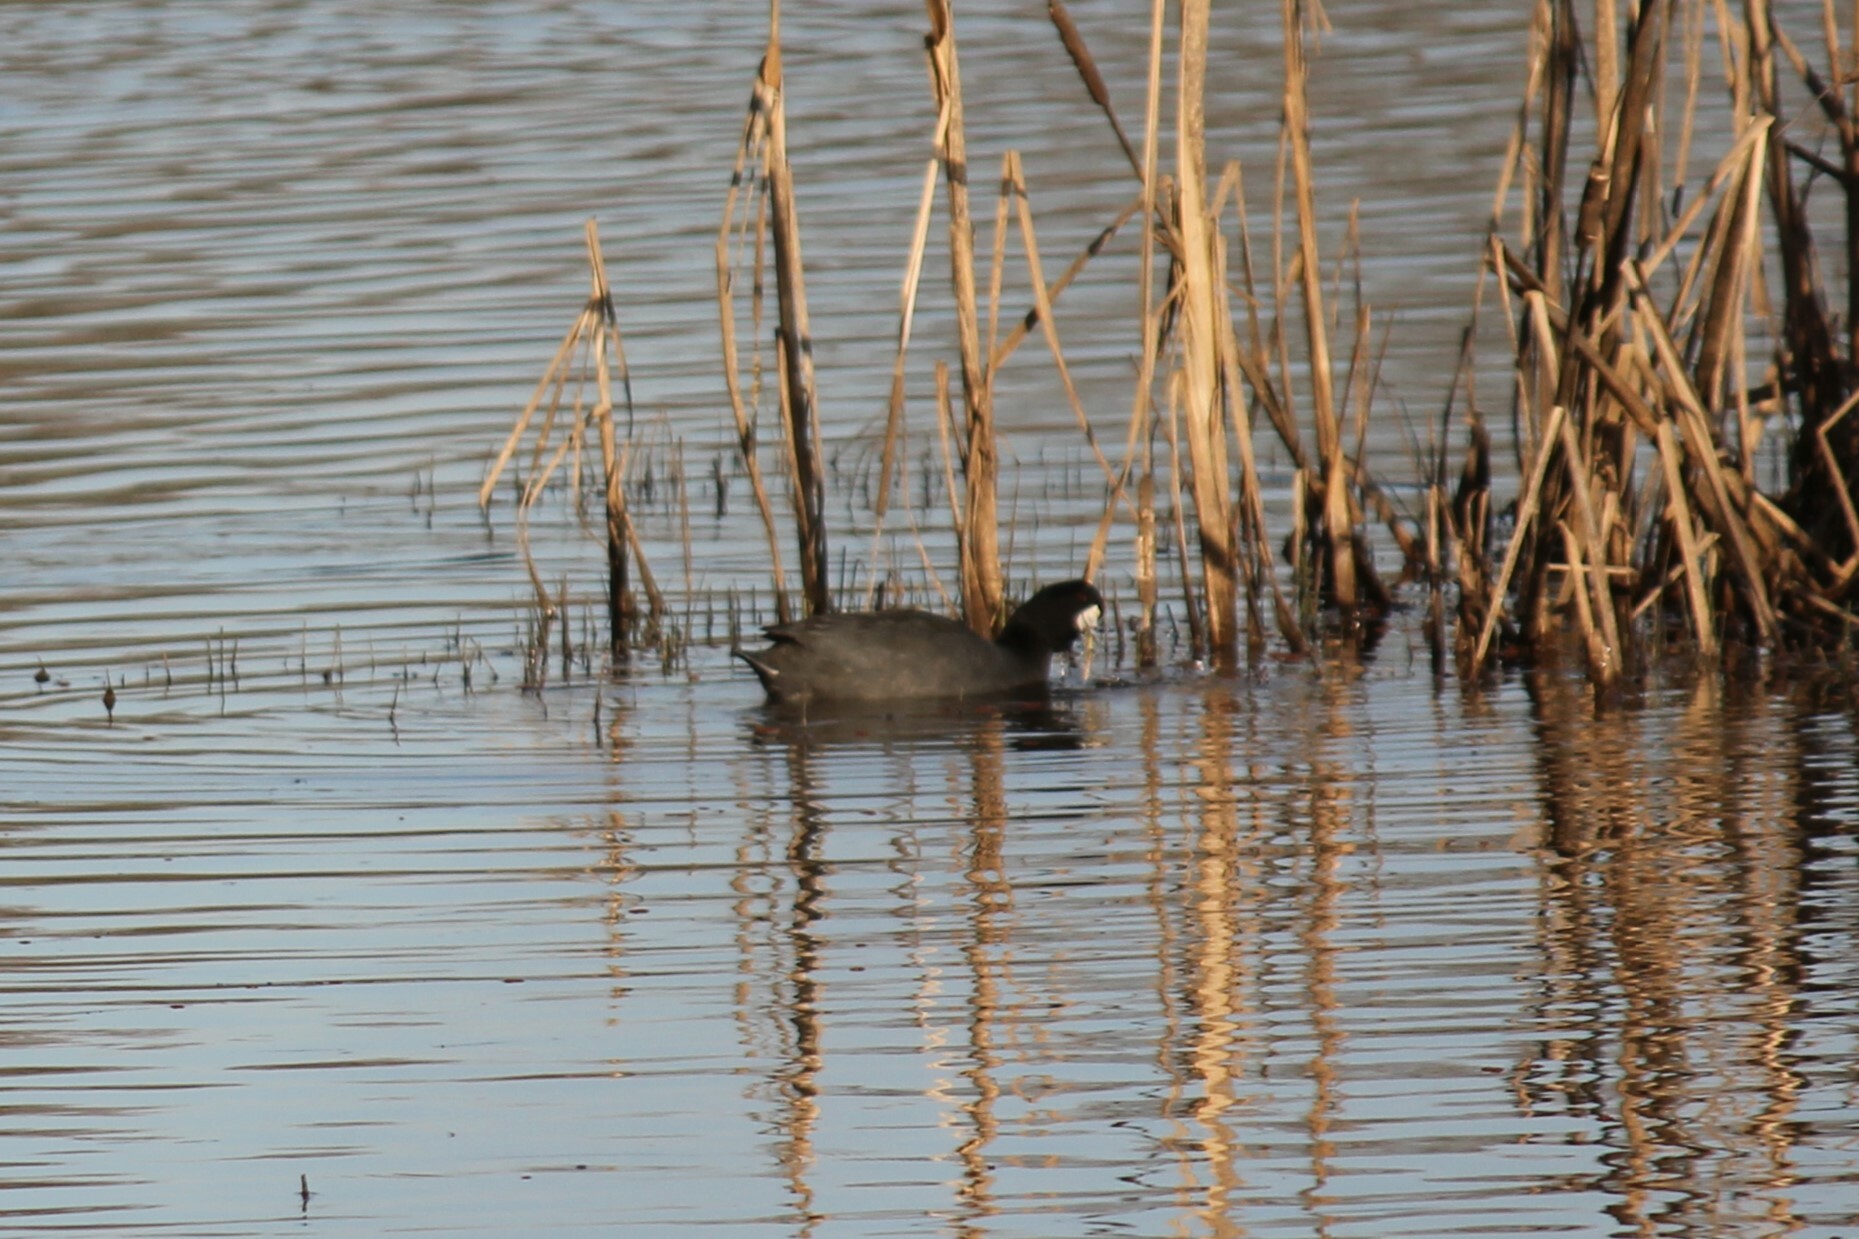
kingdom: Animalia
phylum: Chordata
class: Aves
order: Gruiformes
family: Rallidae
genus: Fulica
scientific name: Fulica americana
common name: American coot
